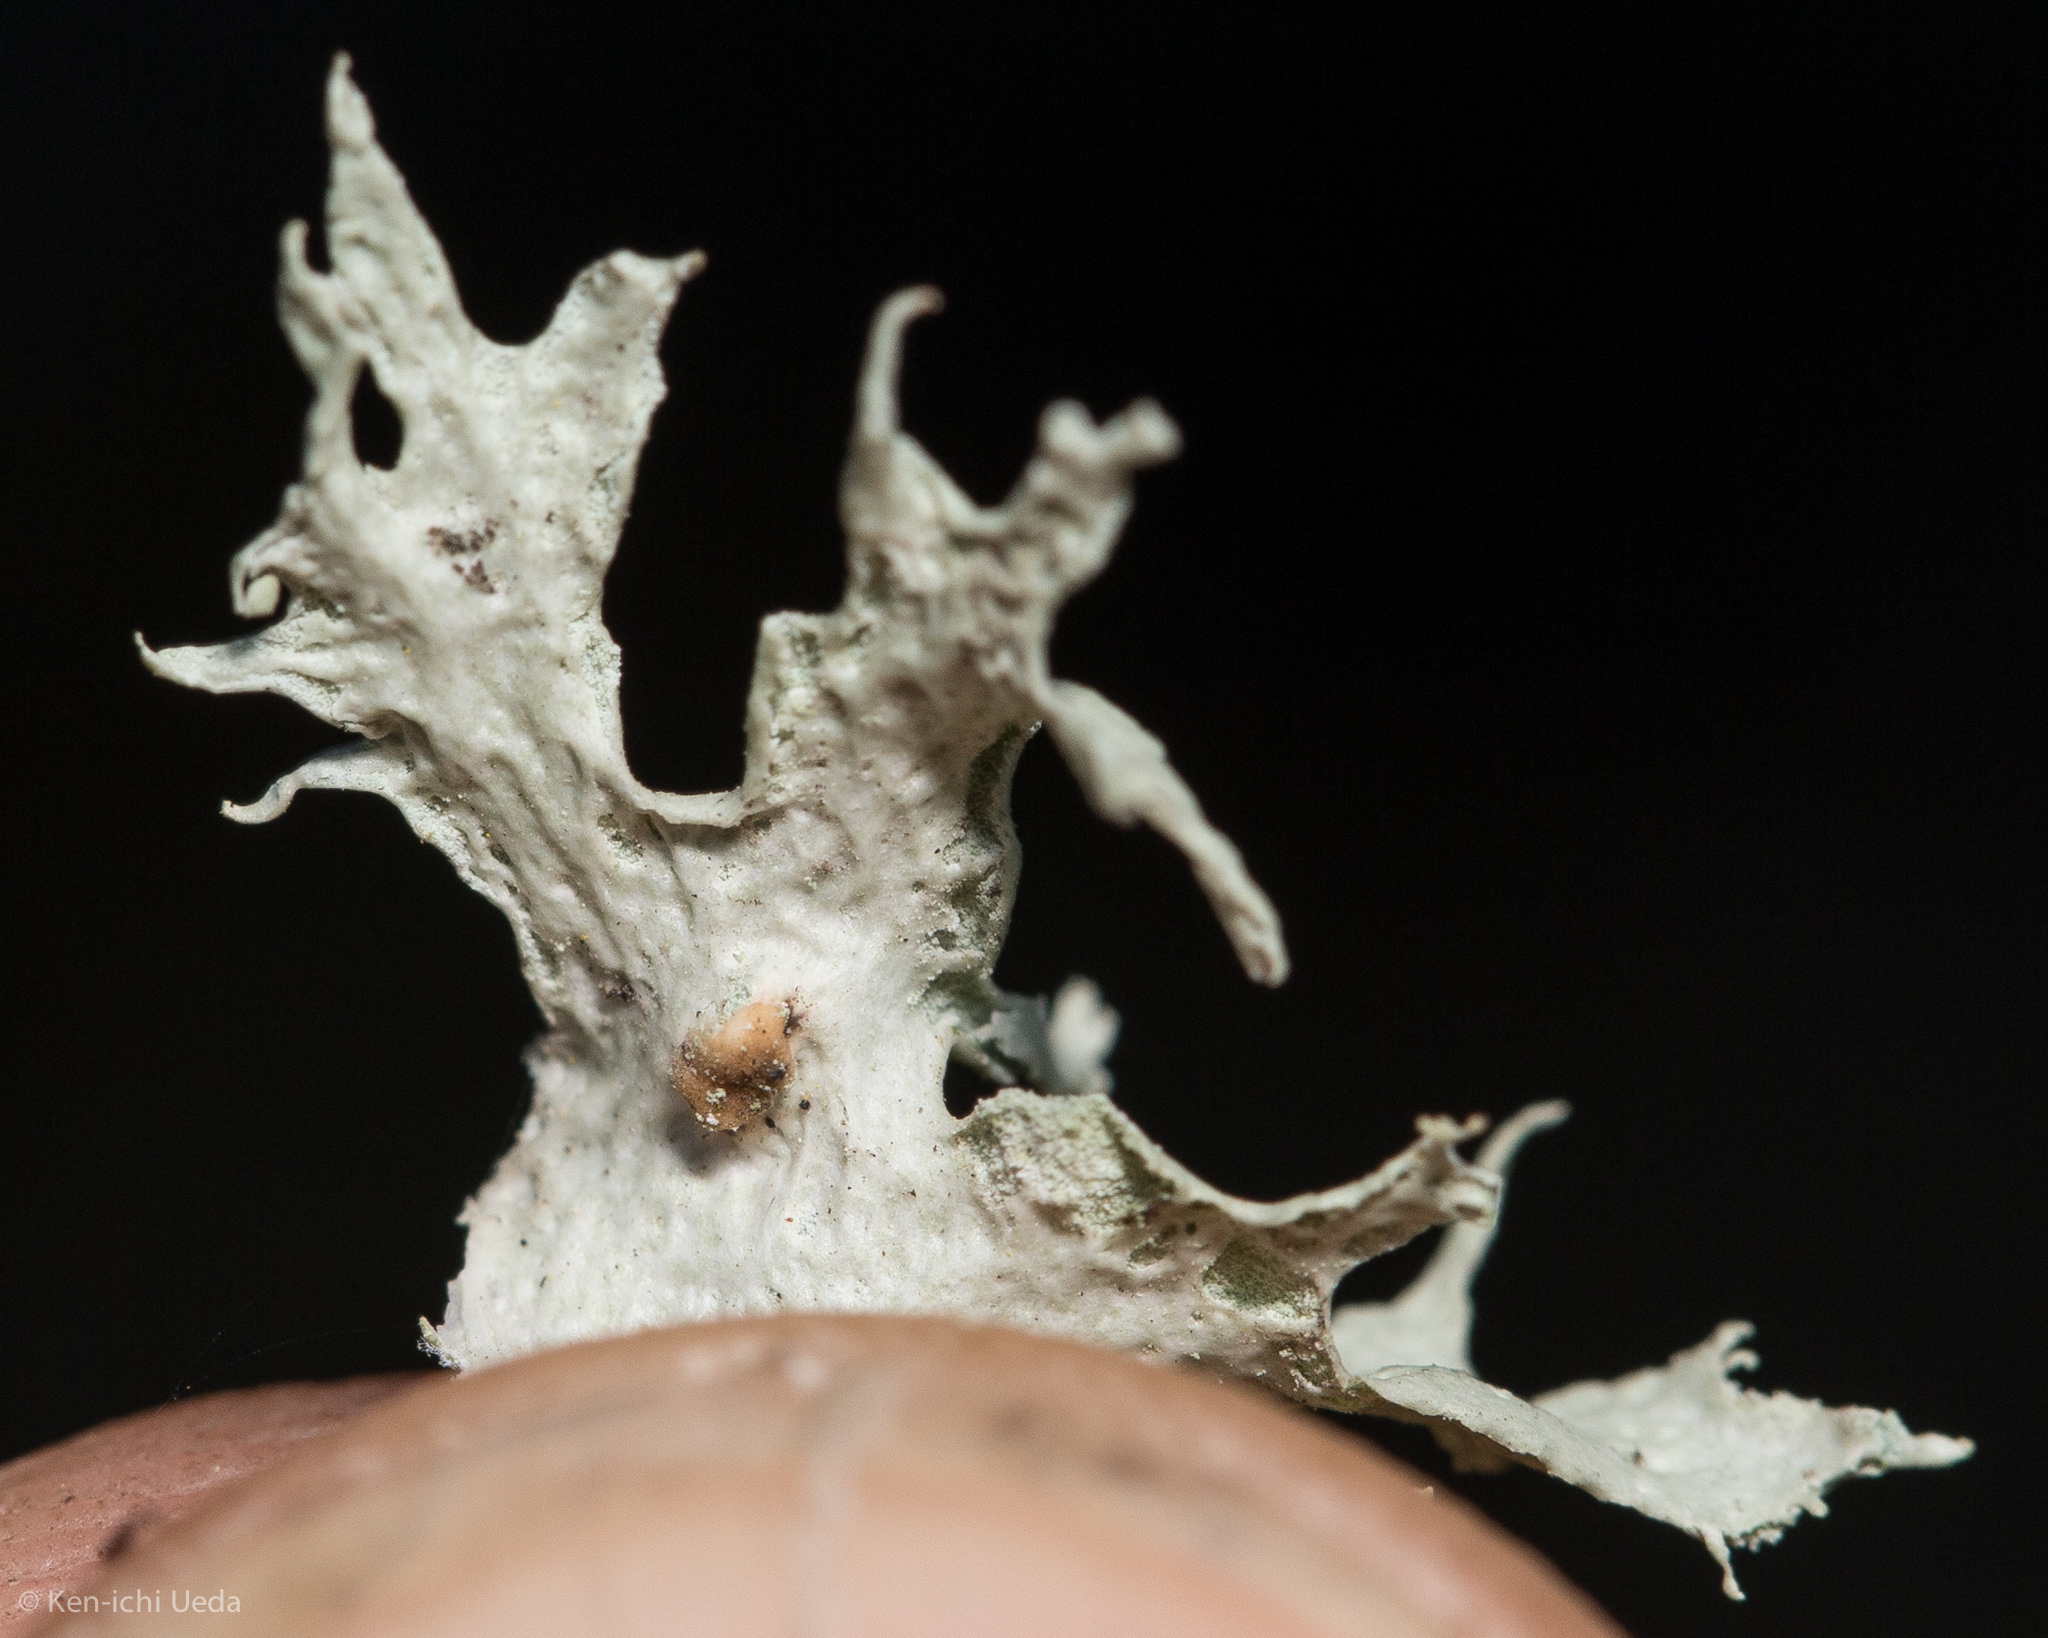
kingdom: Fungi
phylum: Ascomycota
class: Lecanoromycetes
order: Lecanorales
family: Ramalinaceae
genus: Ramalina
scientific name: Ramalina canariensis
